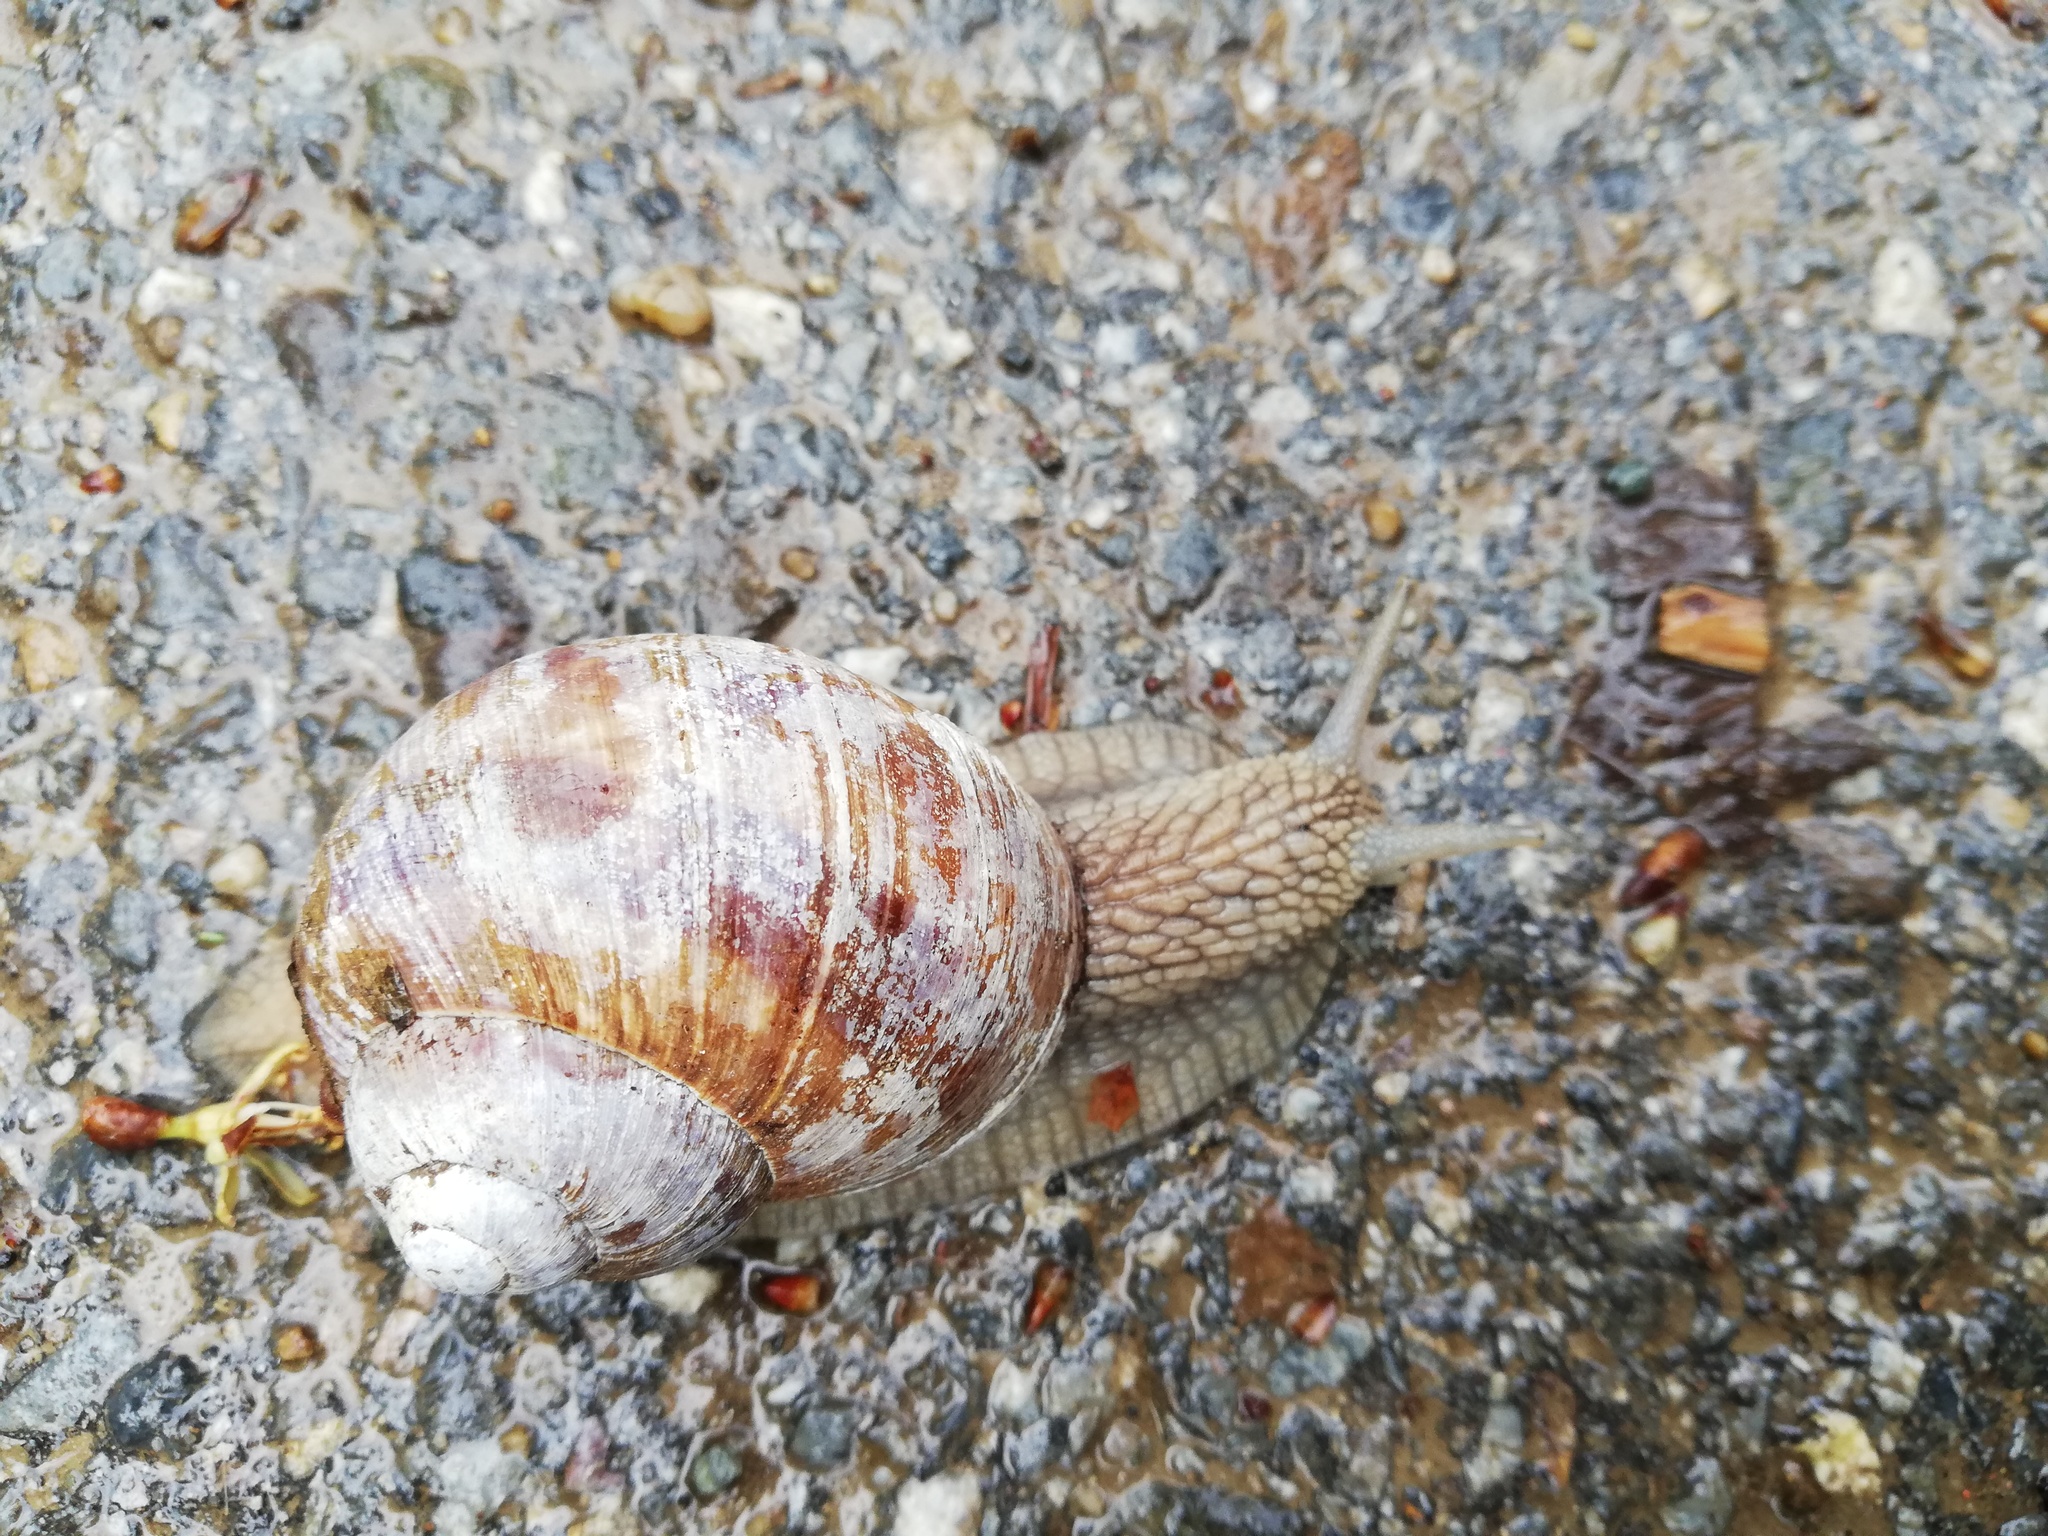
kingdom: Animalia
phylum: Mollusca
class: Gastropoda
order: Stylommatophora
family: Helicidae
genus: Helix
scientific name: Helix pomatia
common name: Roman snail
